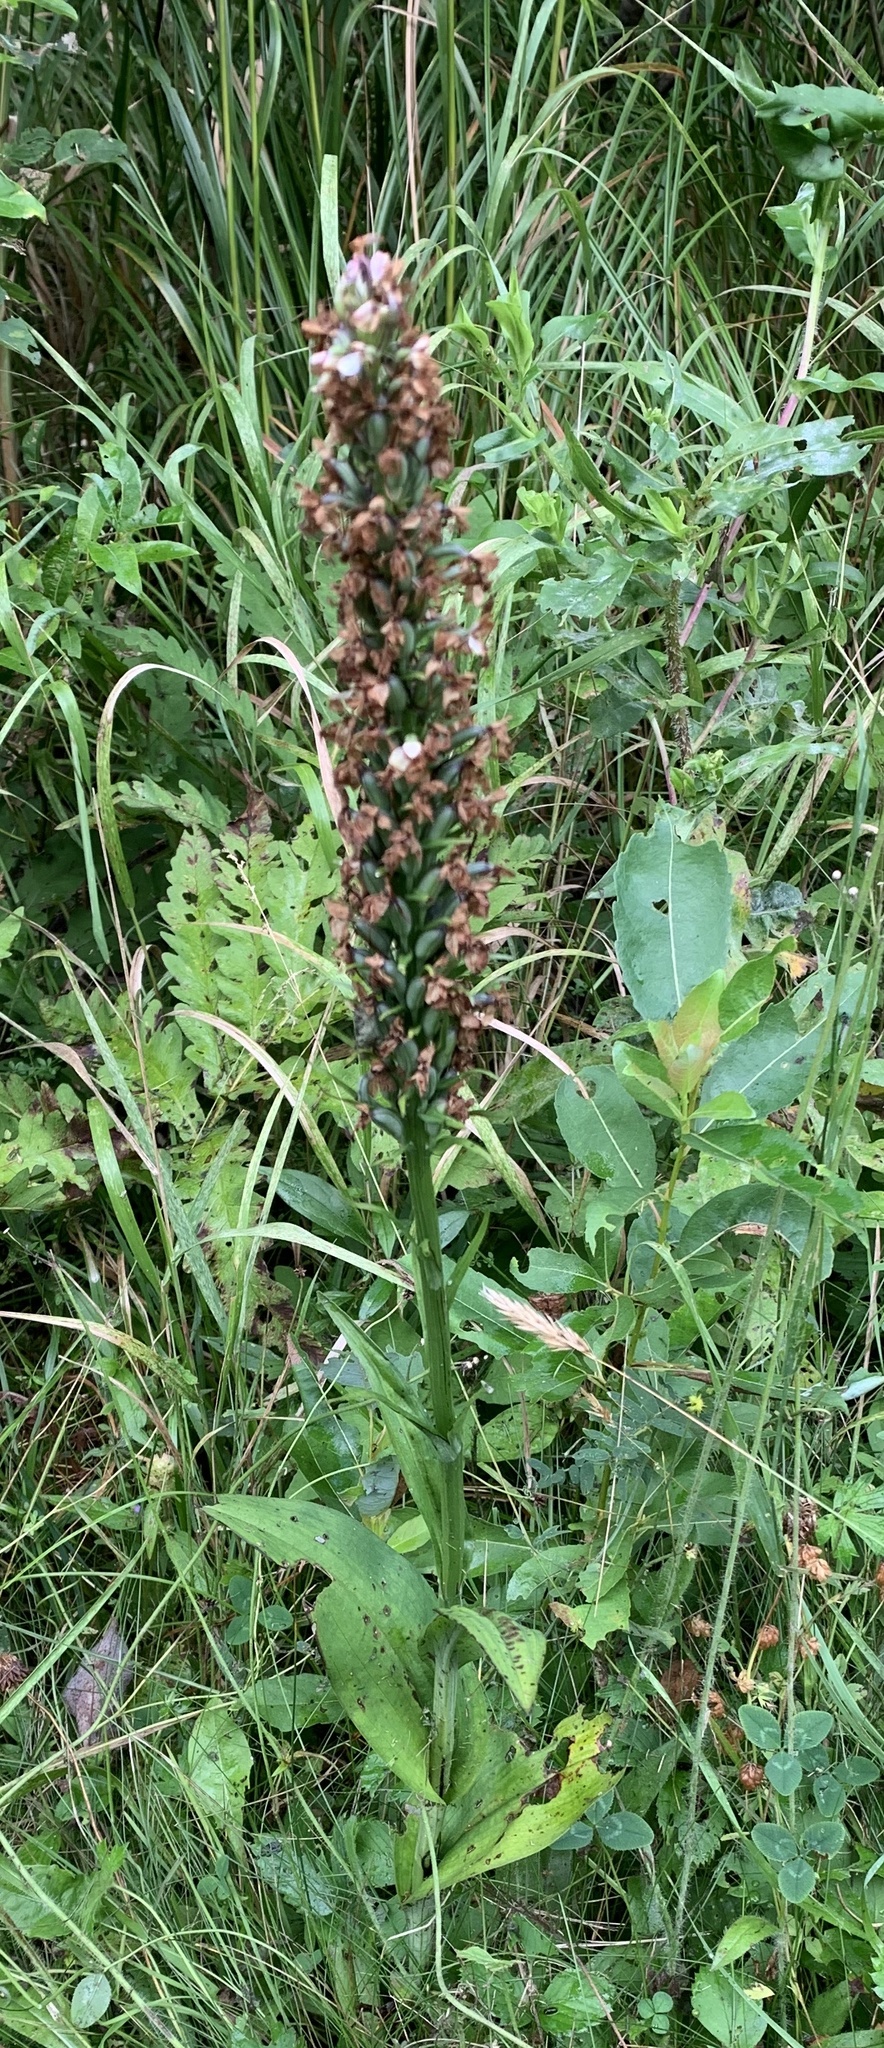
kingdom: Plantae
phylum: Tracheophyta
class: Liliopsida
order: Asparagales
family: Orchidaceae
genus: Platanthera
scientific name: Platanthera psycodes
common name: Lesser purple fringed orchid
